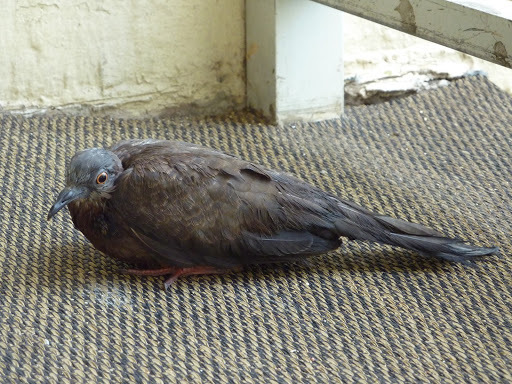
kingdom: Animalia
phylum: Chordata
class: Aves
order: Columbiformes
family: Columbidae
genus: Spilopelia
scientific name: Spilopelia chinensis
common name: Spotted dove
